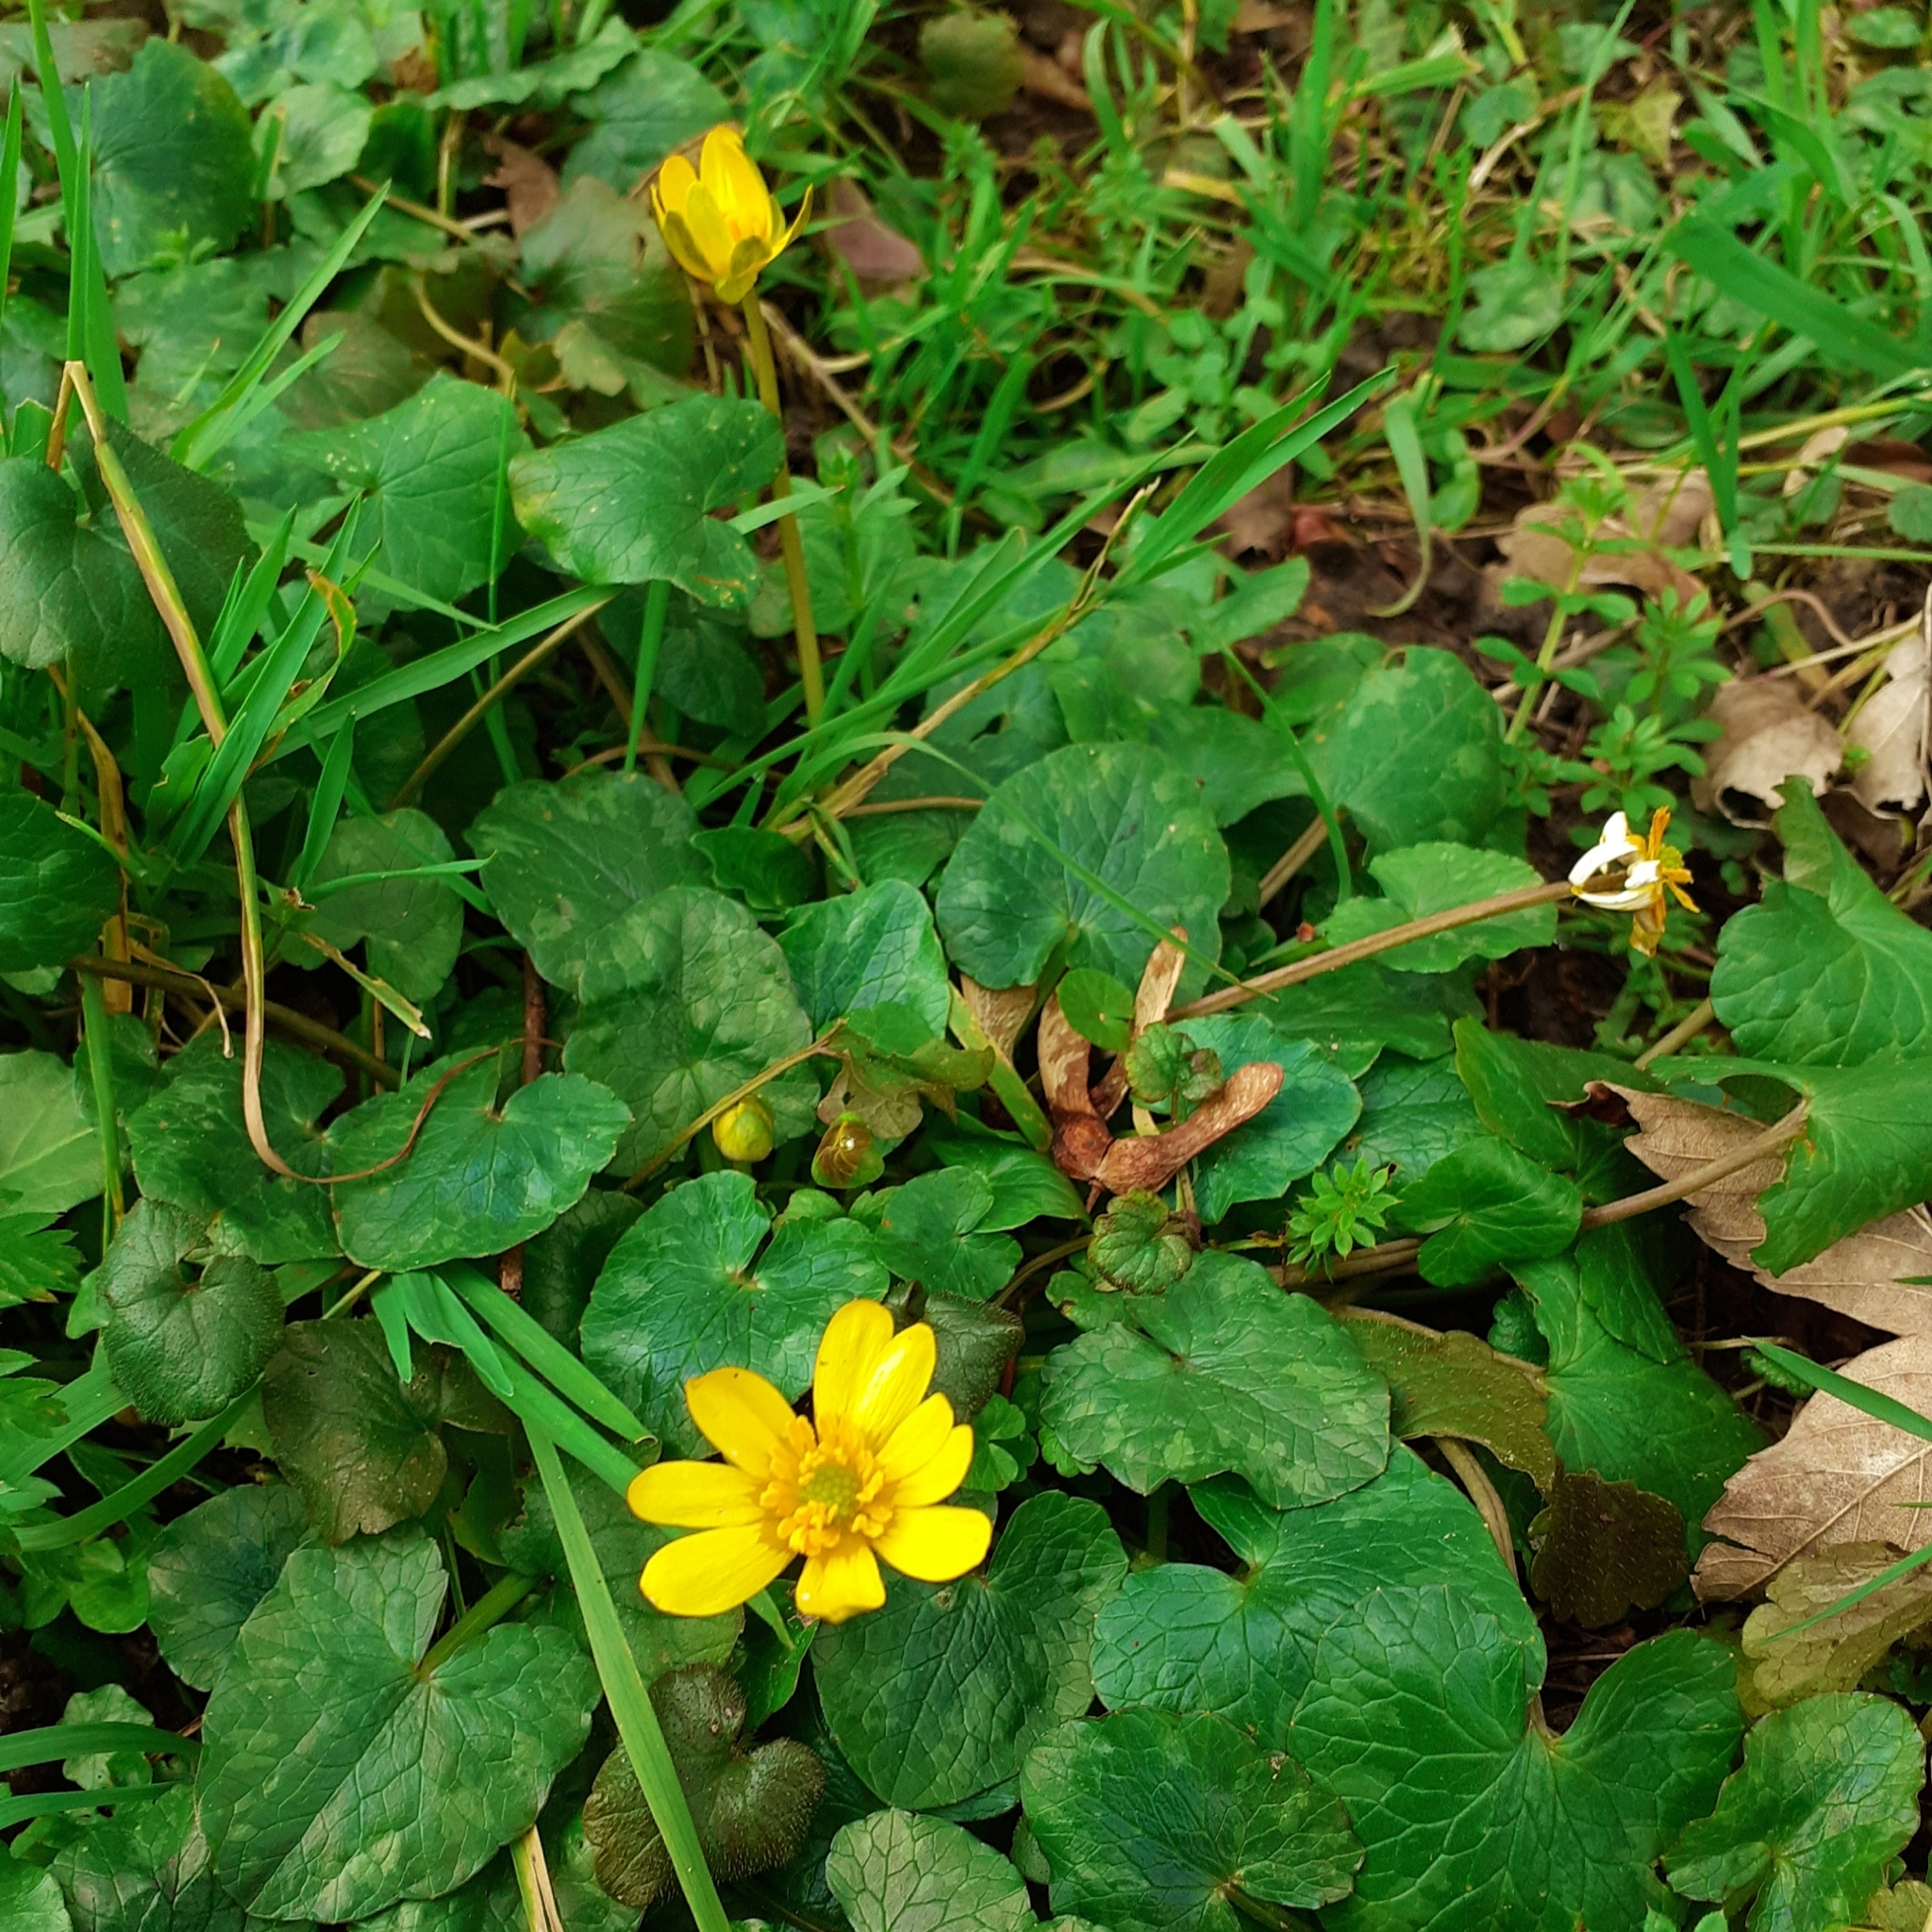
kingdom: Plantae
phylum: Tracheophyta
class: Magnoliopsida
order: Ranunculales
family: Ranunculaceae
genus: Ficaria
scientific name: Ficaria verna
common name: Lesser celandine
